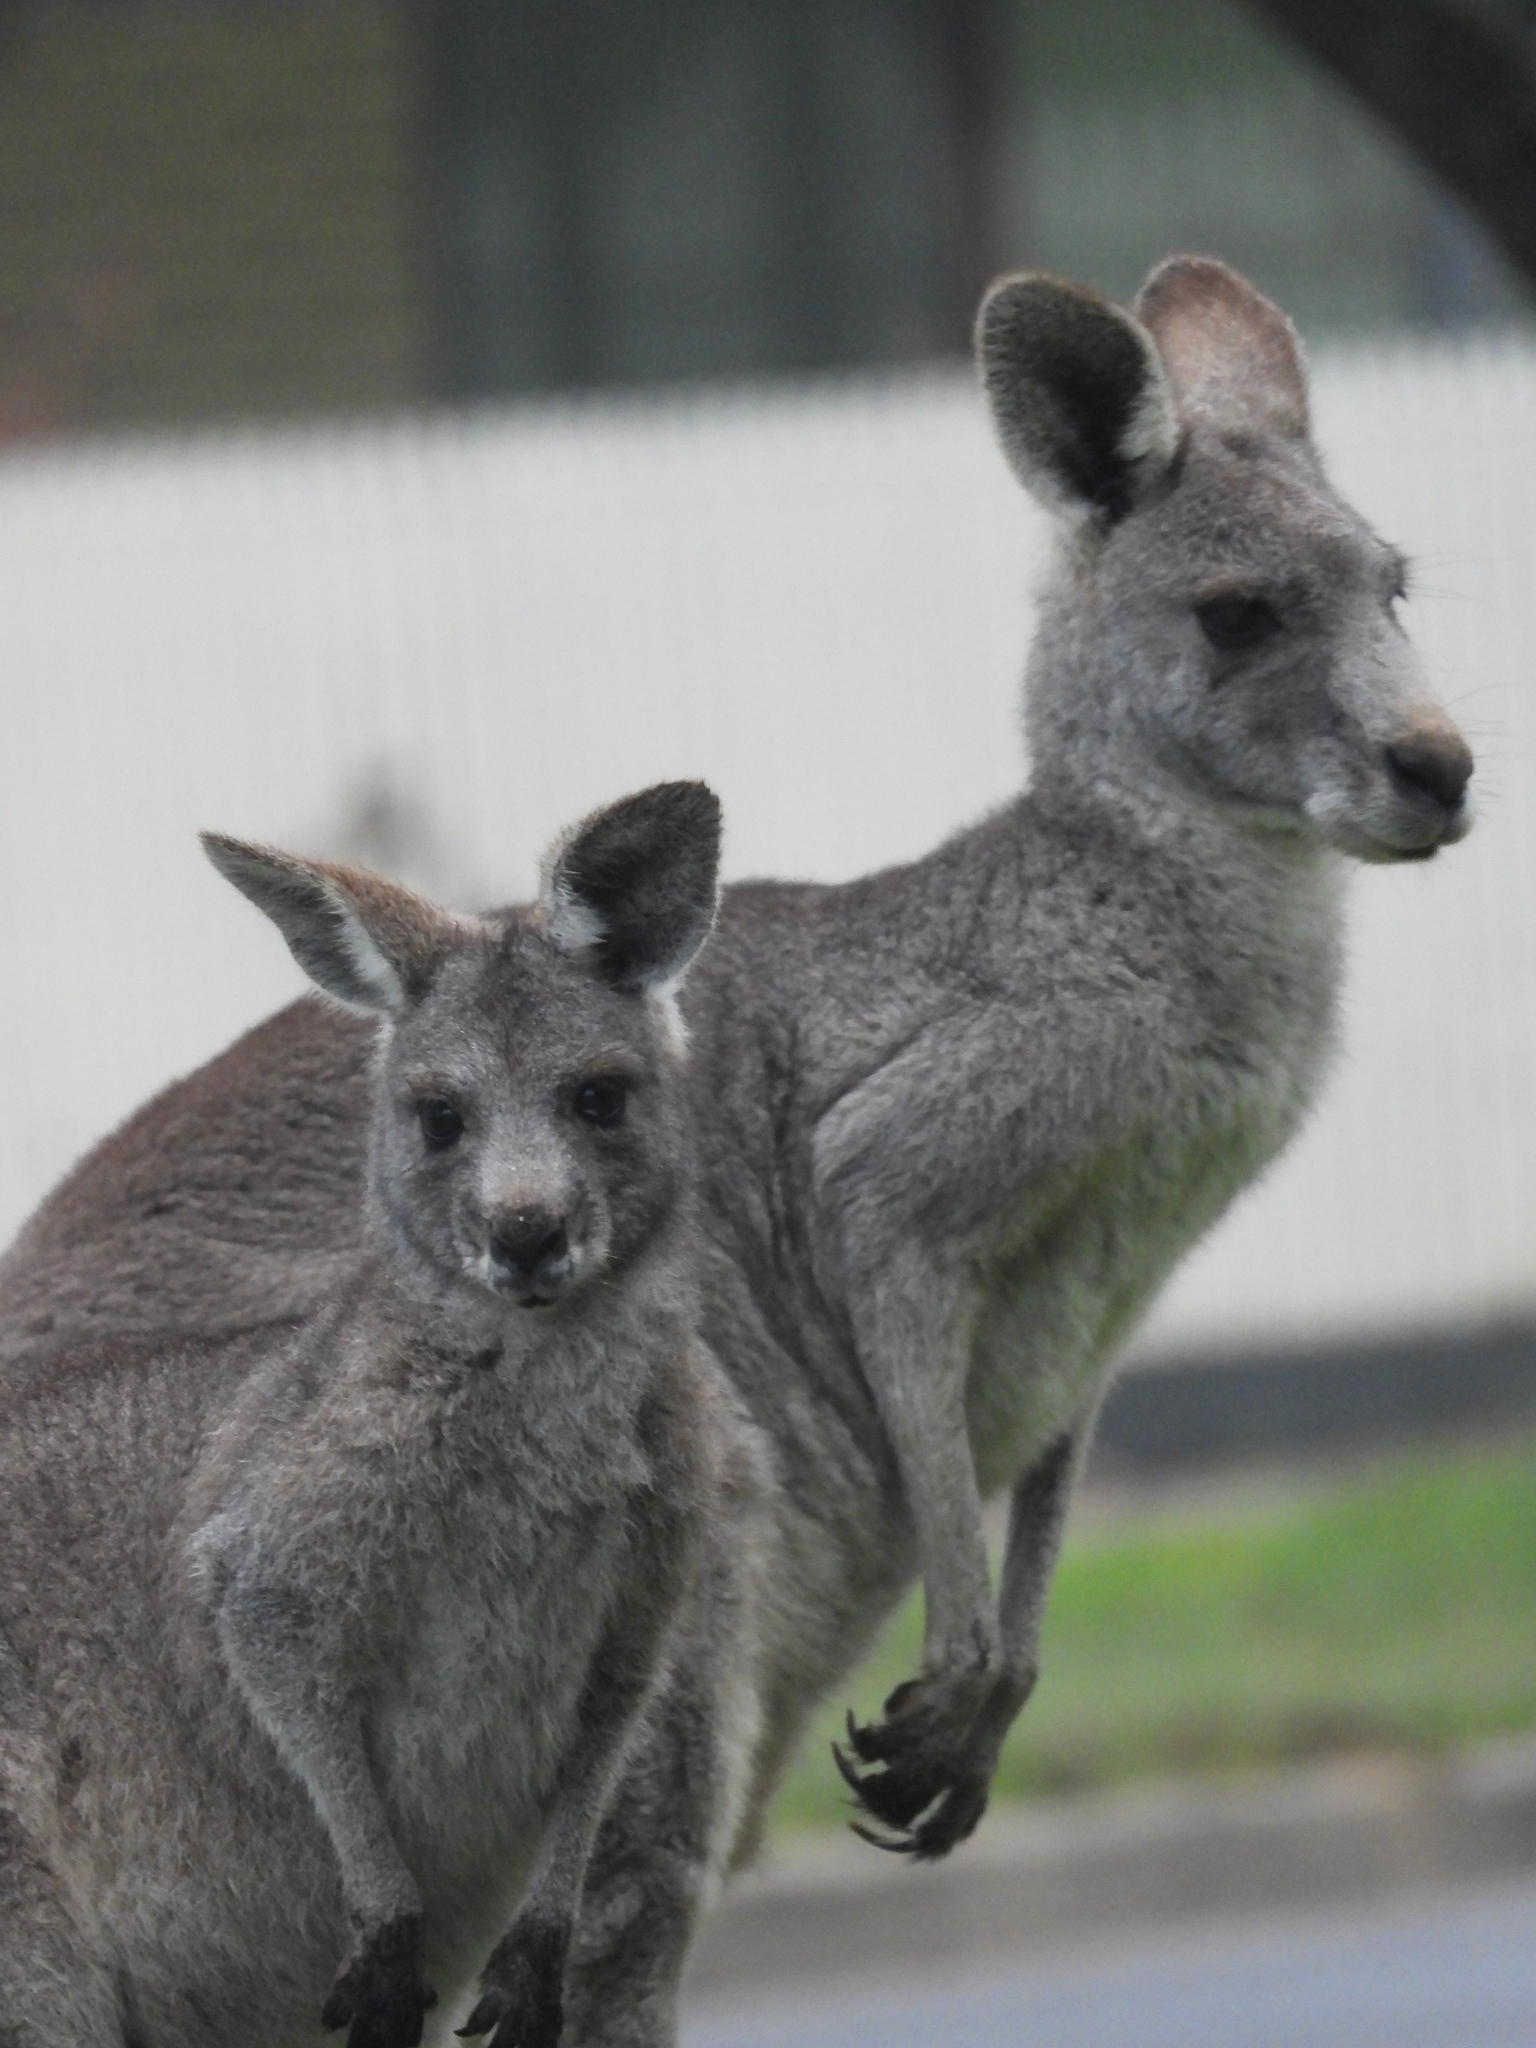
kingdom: Animalia
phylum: Chordata
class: Mammalia
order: Diprotodontia
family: Macropodidae
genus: Macropus
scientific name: Macropus giganteus
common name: Eastern grey kangaroo
